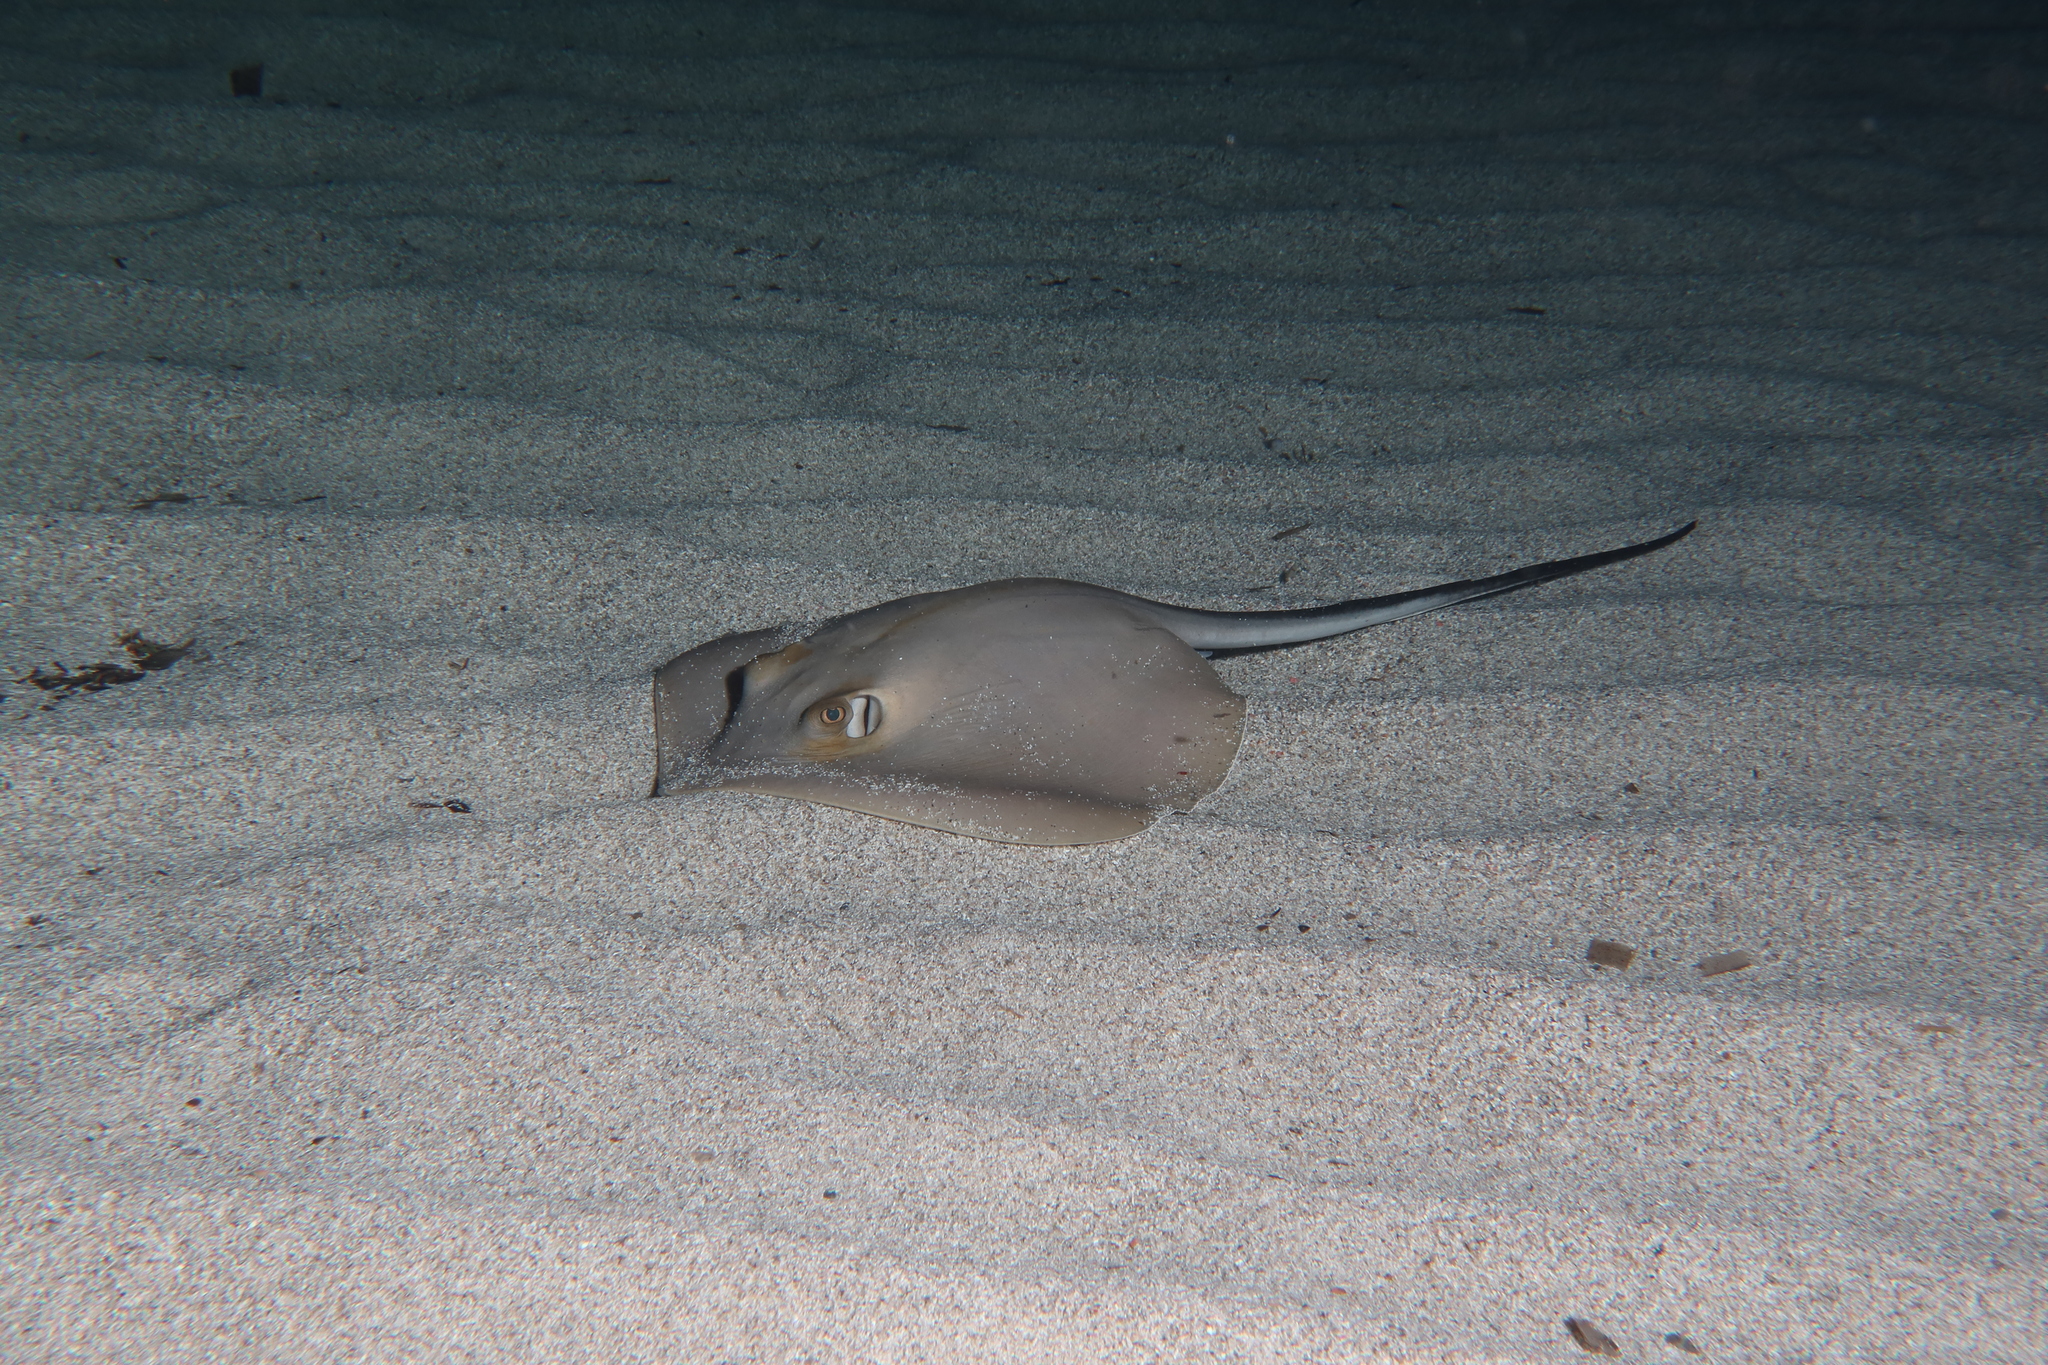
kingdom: Animalia
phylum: Chordata
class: Elasmobranchii
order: Myliobatiformes
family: Dasyatidae
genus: Dasyatis
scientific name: Dasyatis pastinaca
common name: Common stingray
